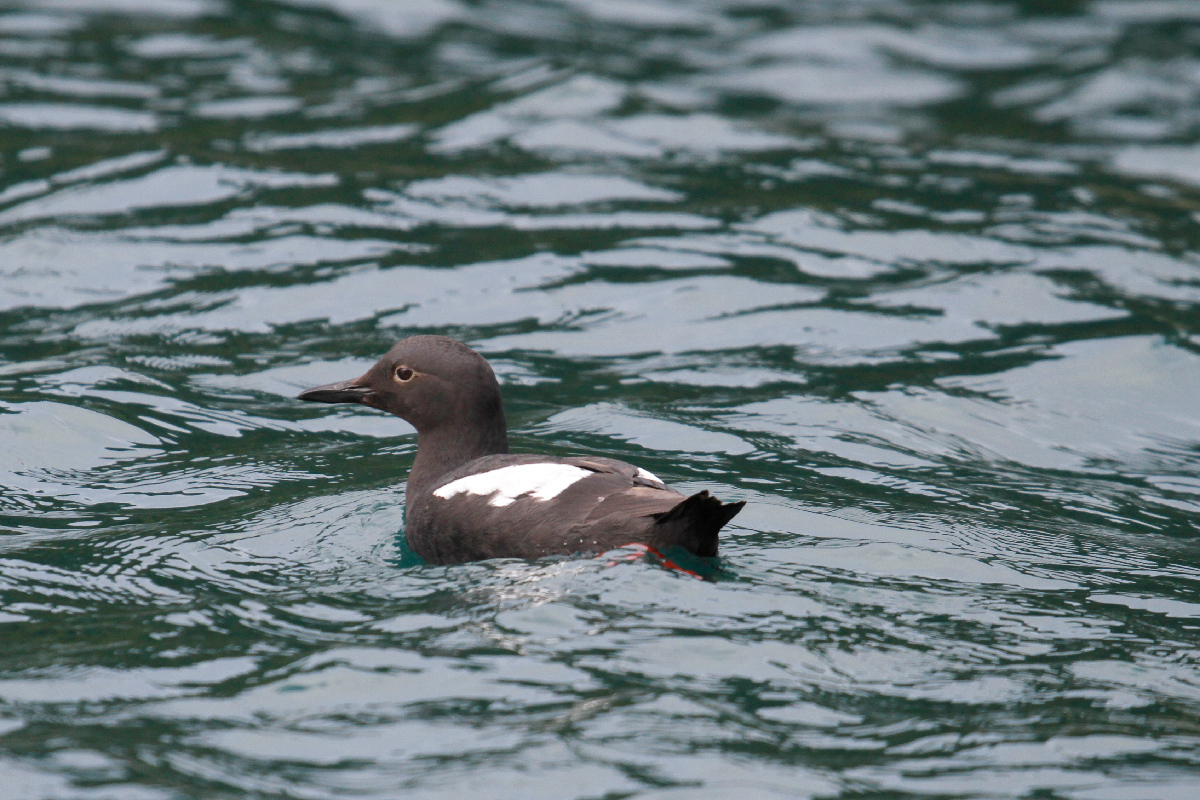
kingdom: Animalia
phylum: Chordata
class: Aves
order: Charadriiformes
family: Alcidae
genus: Cepphus
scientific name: Cepphus columba
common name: Pigeon guillemot
